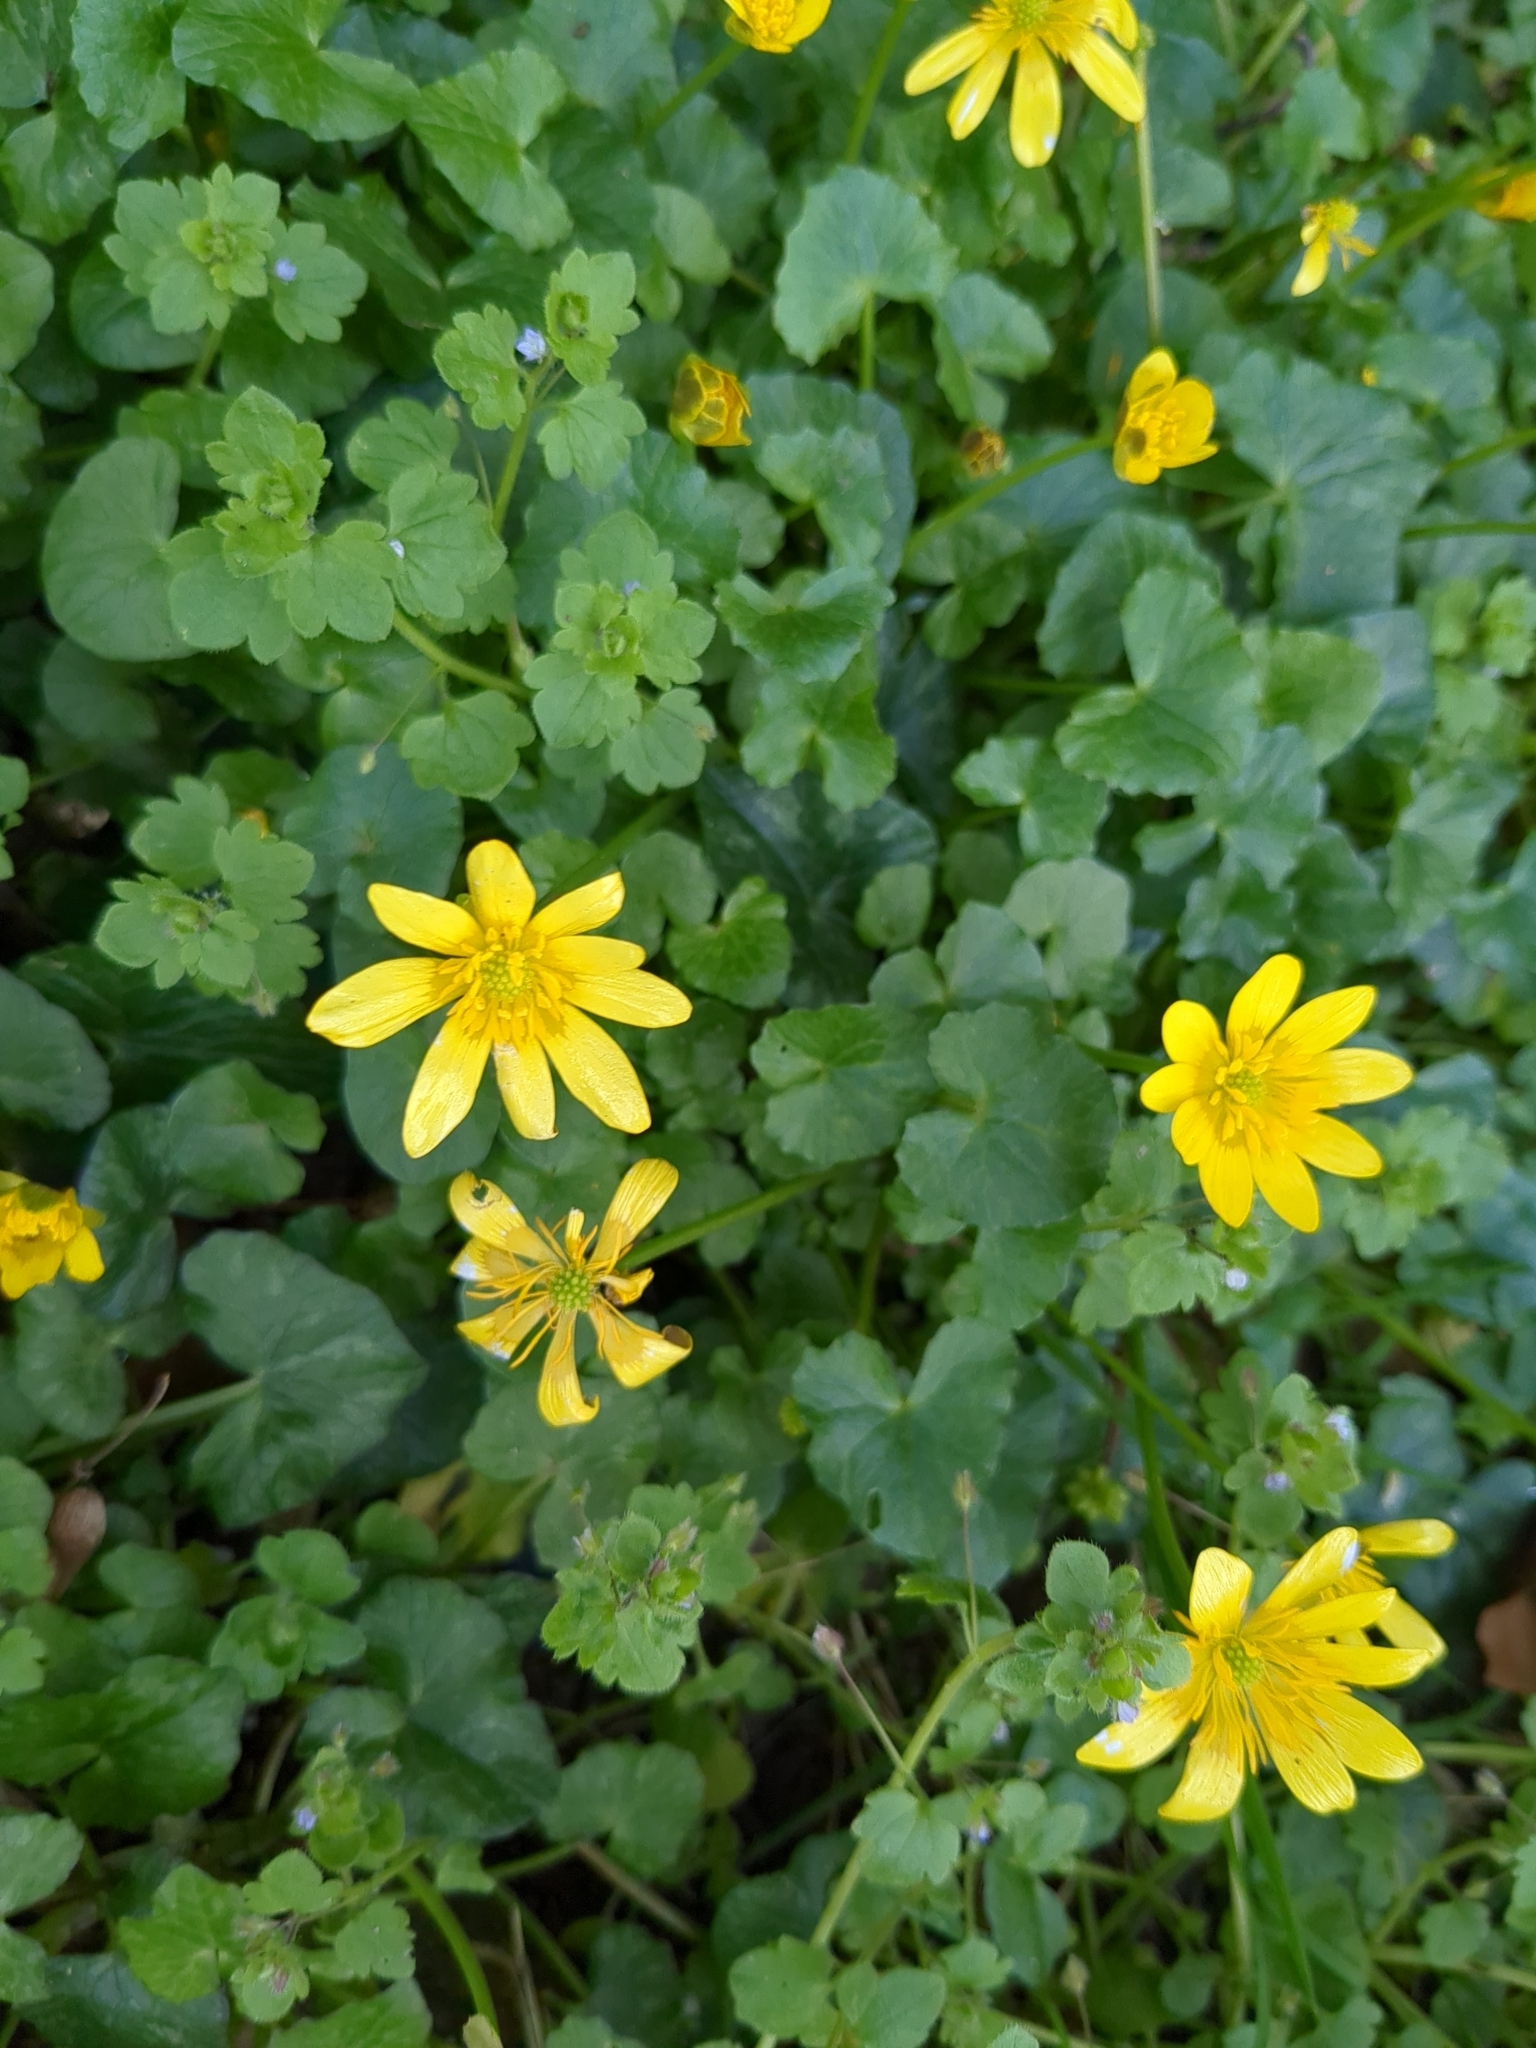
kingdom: Plantae
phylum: Tracheophyta
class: Magnoliopsida
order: Ranunculales
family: Ranunculaceae
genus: Ficaria
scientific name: Ficaria verna
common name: Lesser celandine
